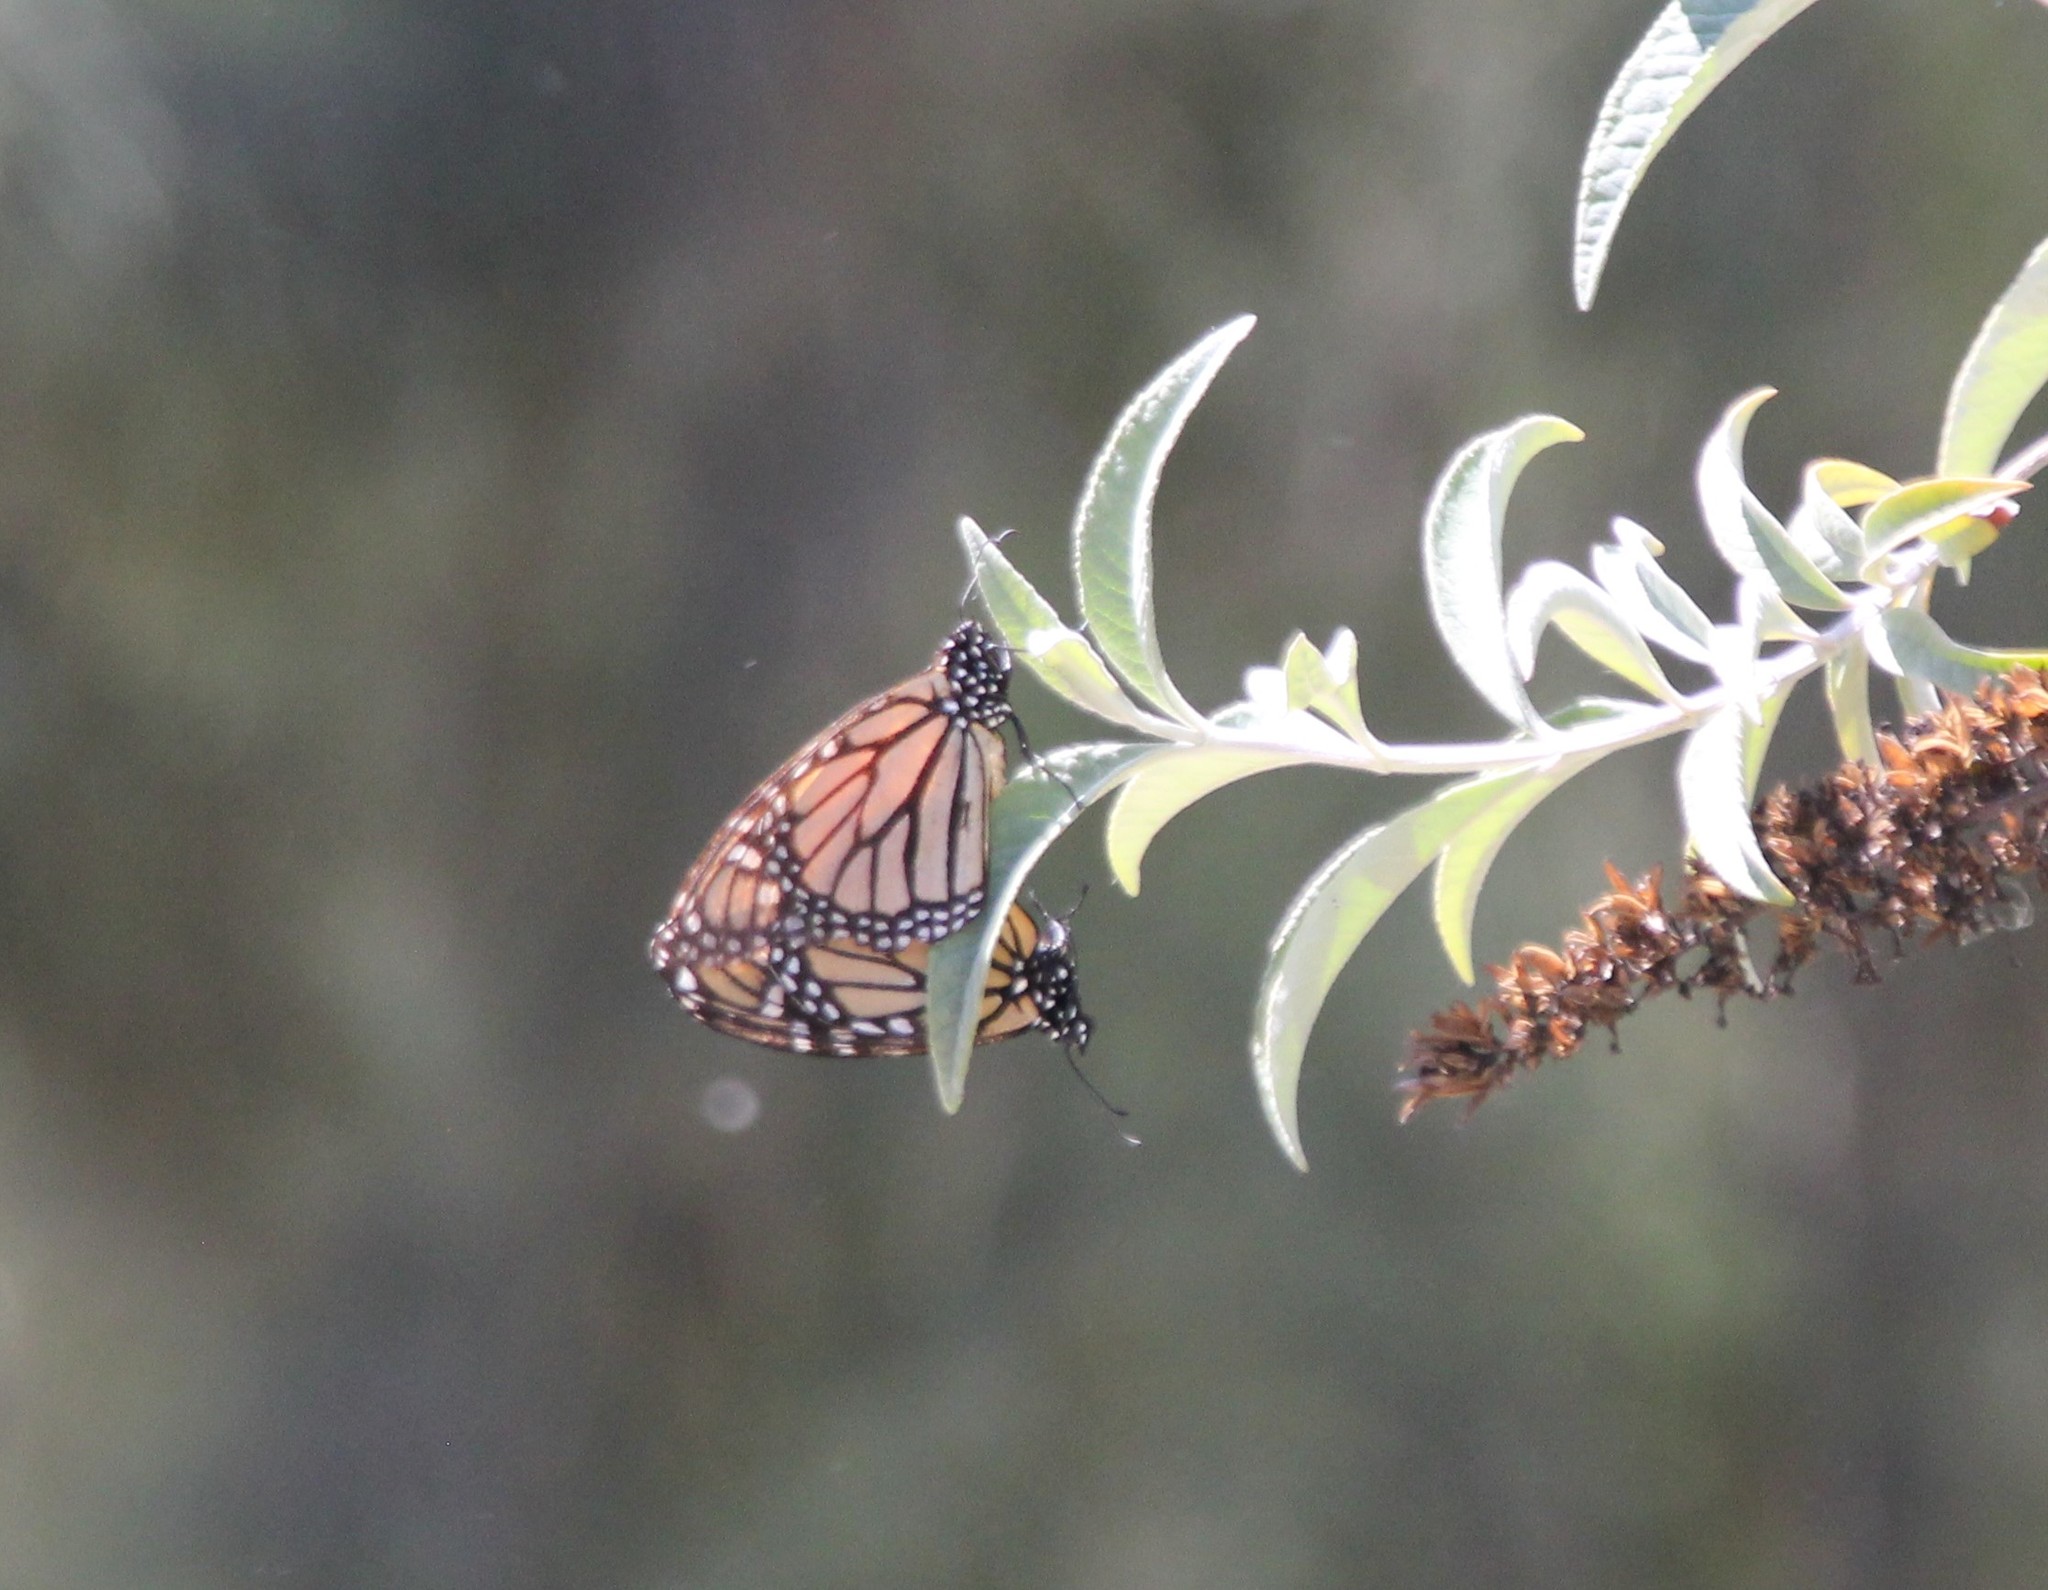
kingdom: Animalia
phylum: Arthropoda
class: Insecta
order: Lepidoptera
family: Nymphalidae
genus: Danaus
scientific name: Danaus plexippus
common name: Monarch
